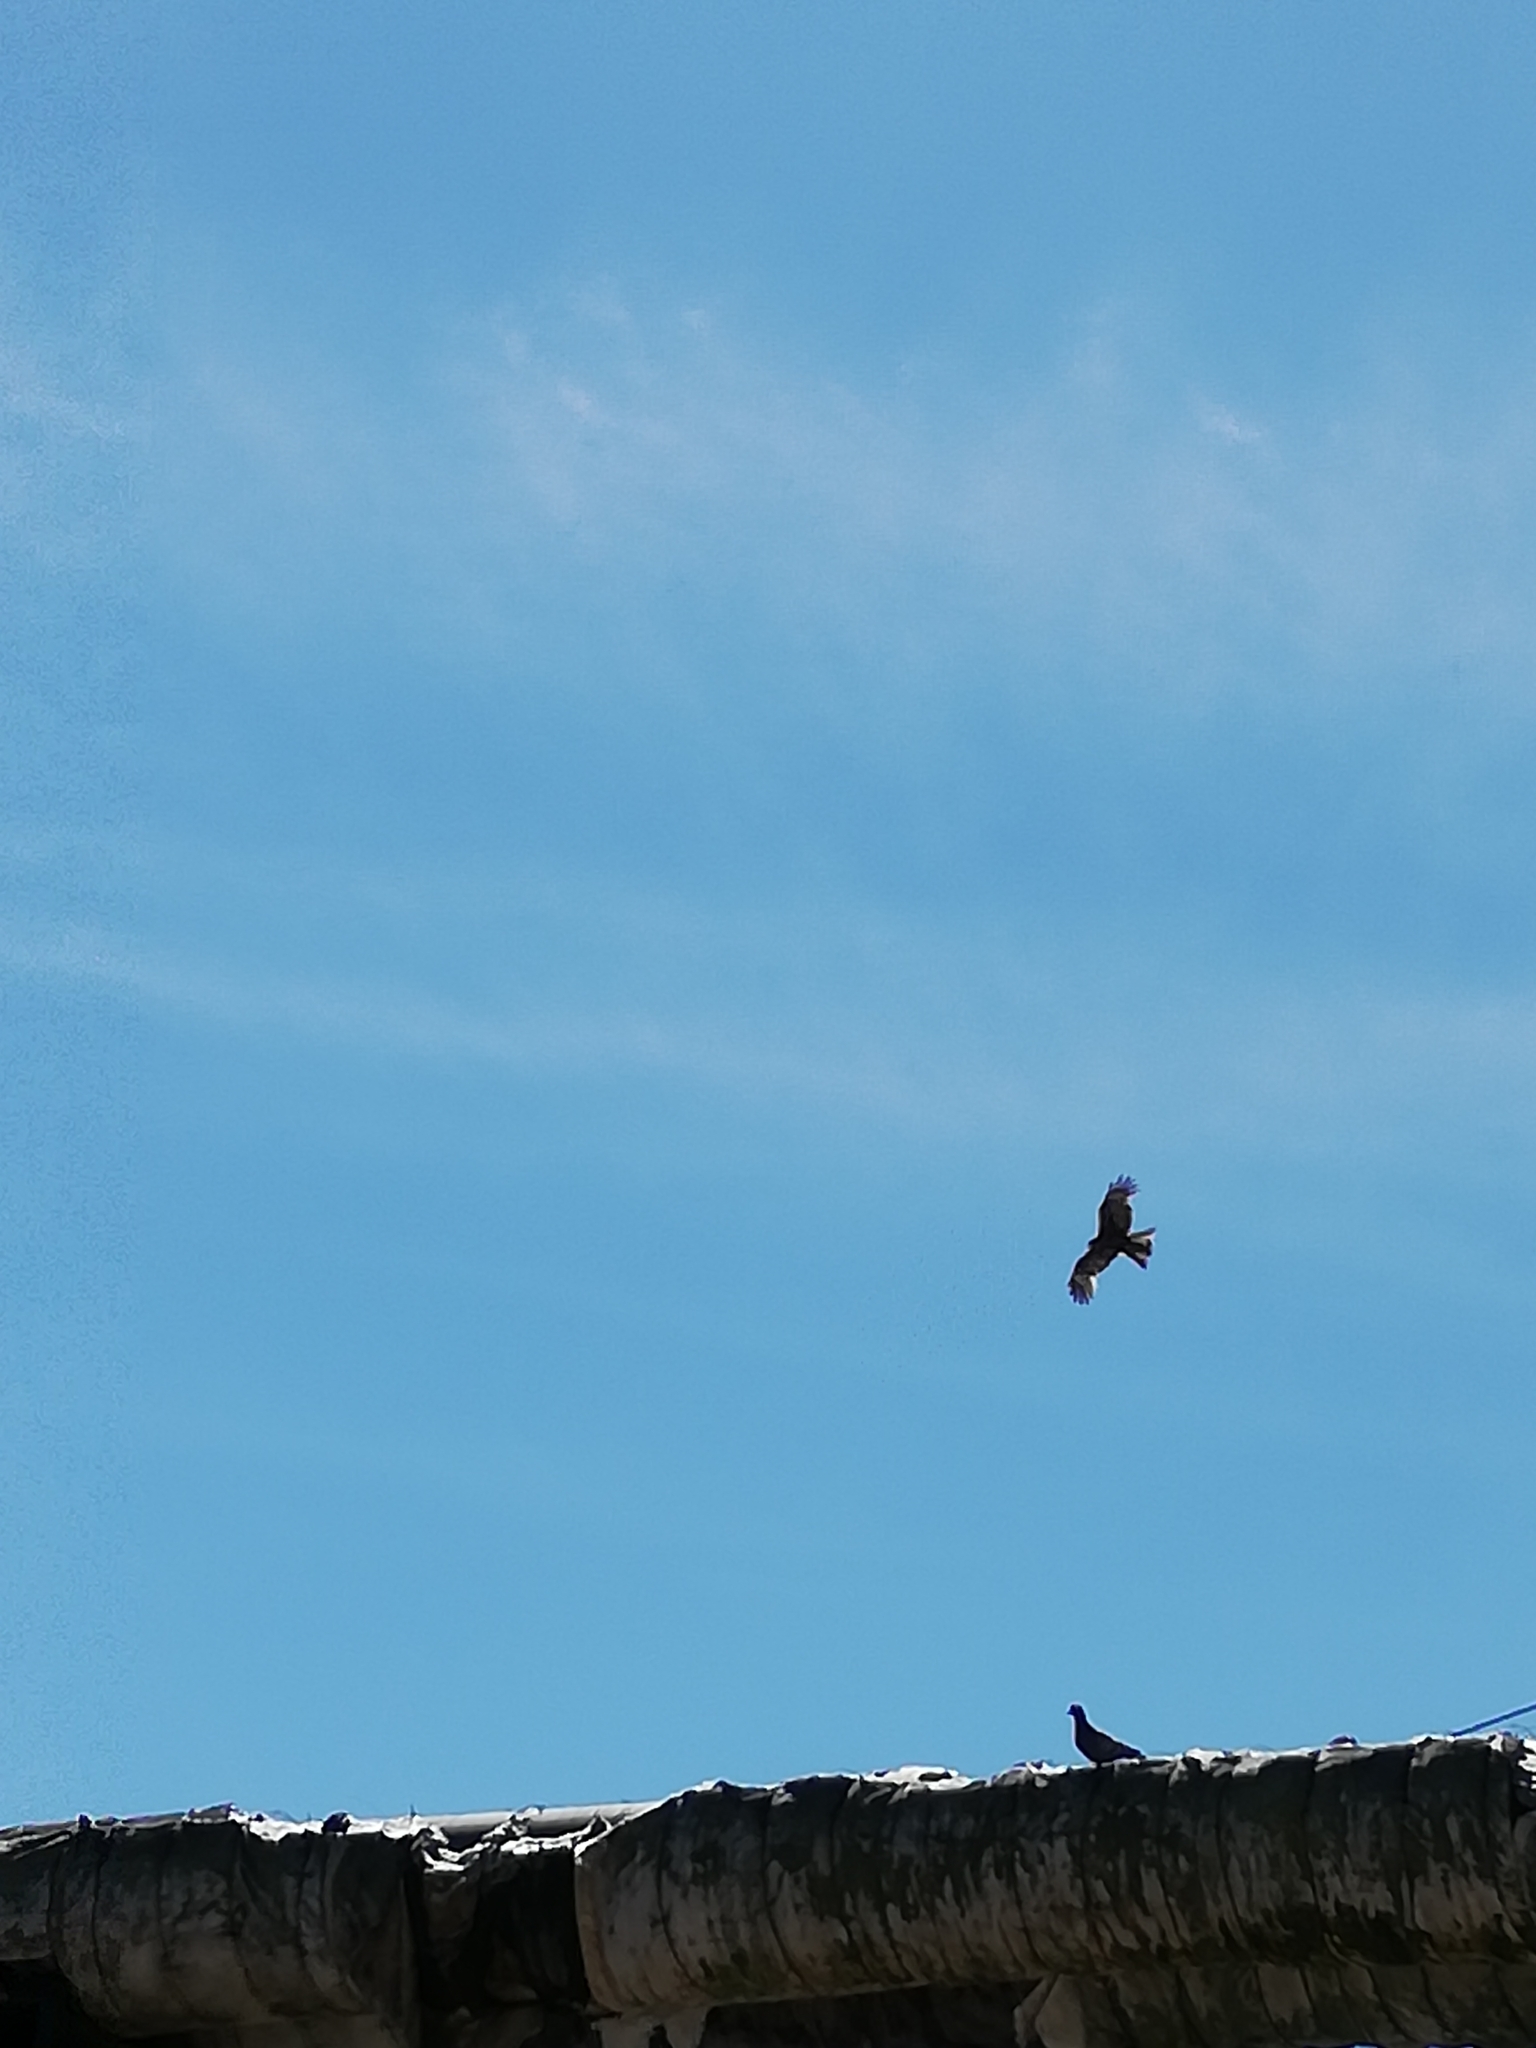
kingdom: Animalia
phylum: Chordata
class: Aves
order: Accipitriformes
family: Accipitridae
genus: Milvus
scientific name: Milvus migrans
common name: Black kite
